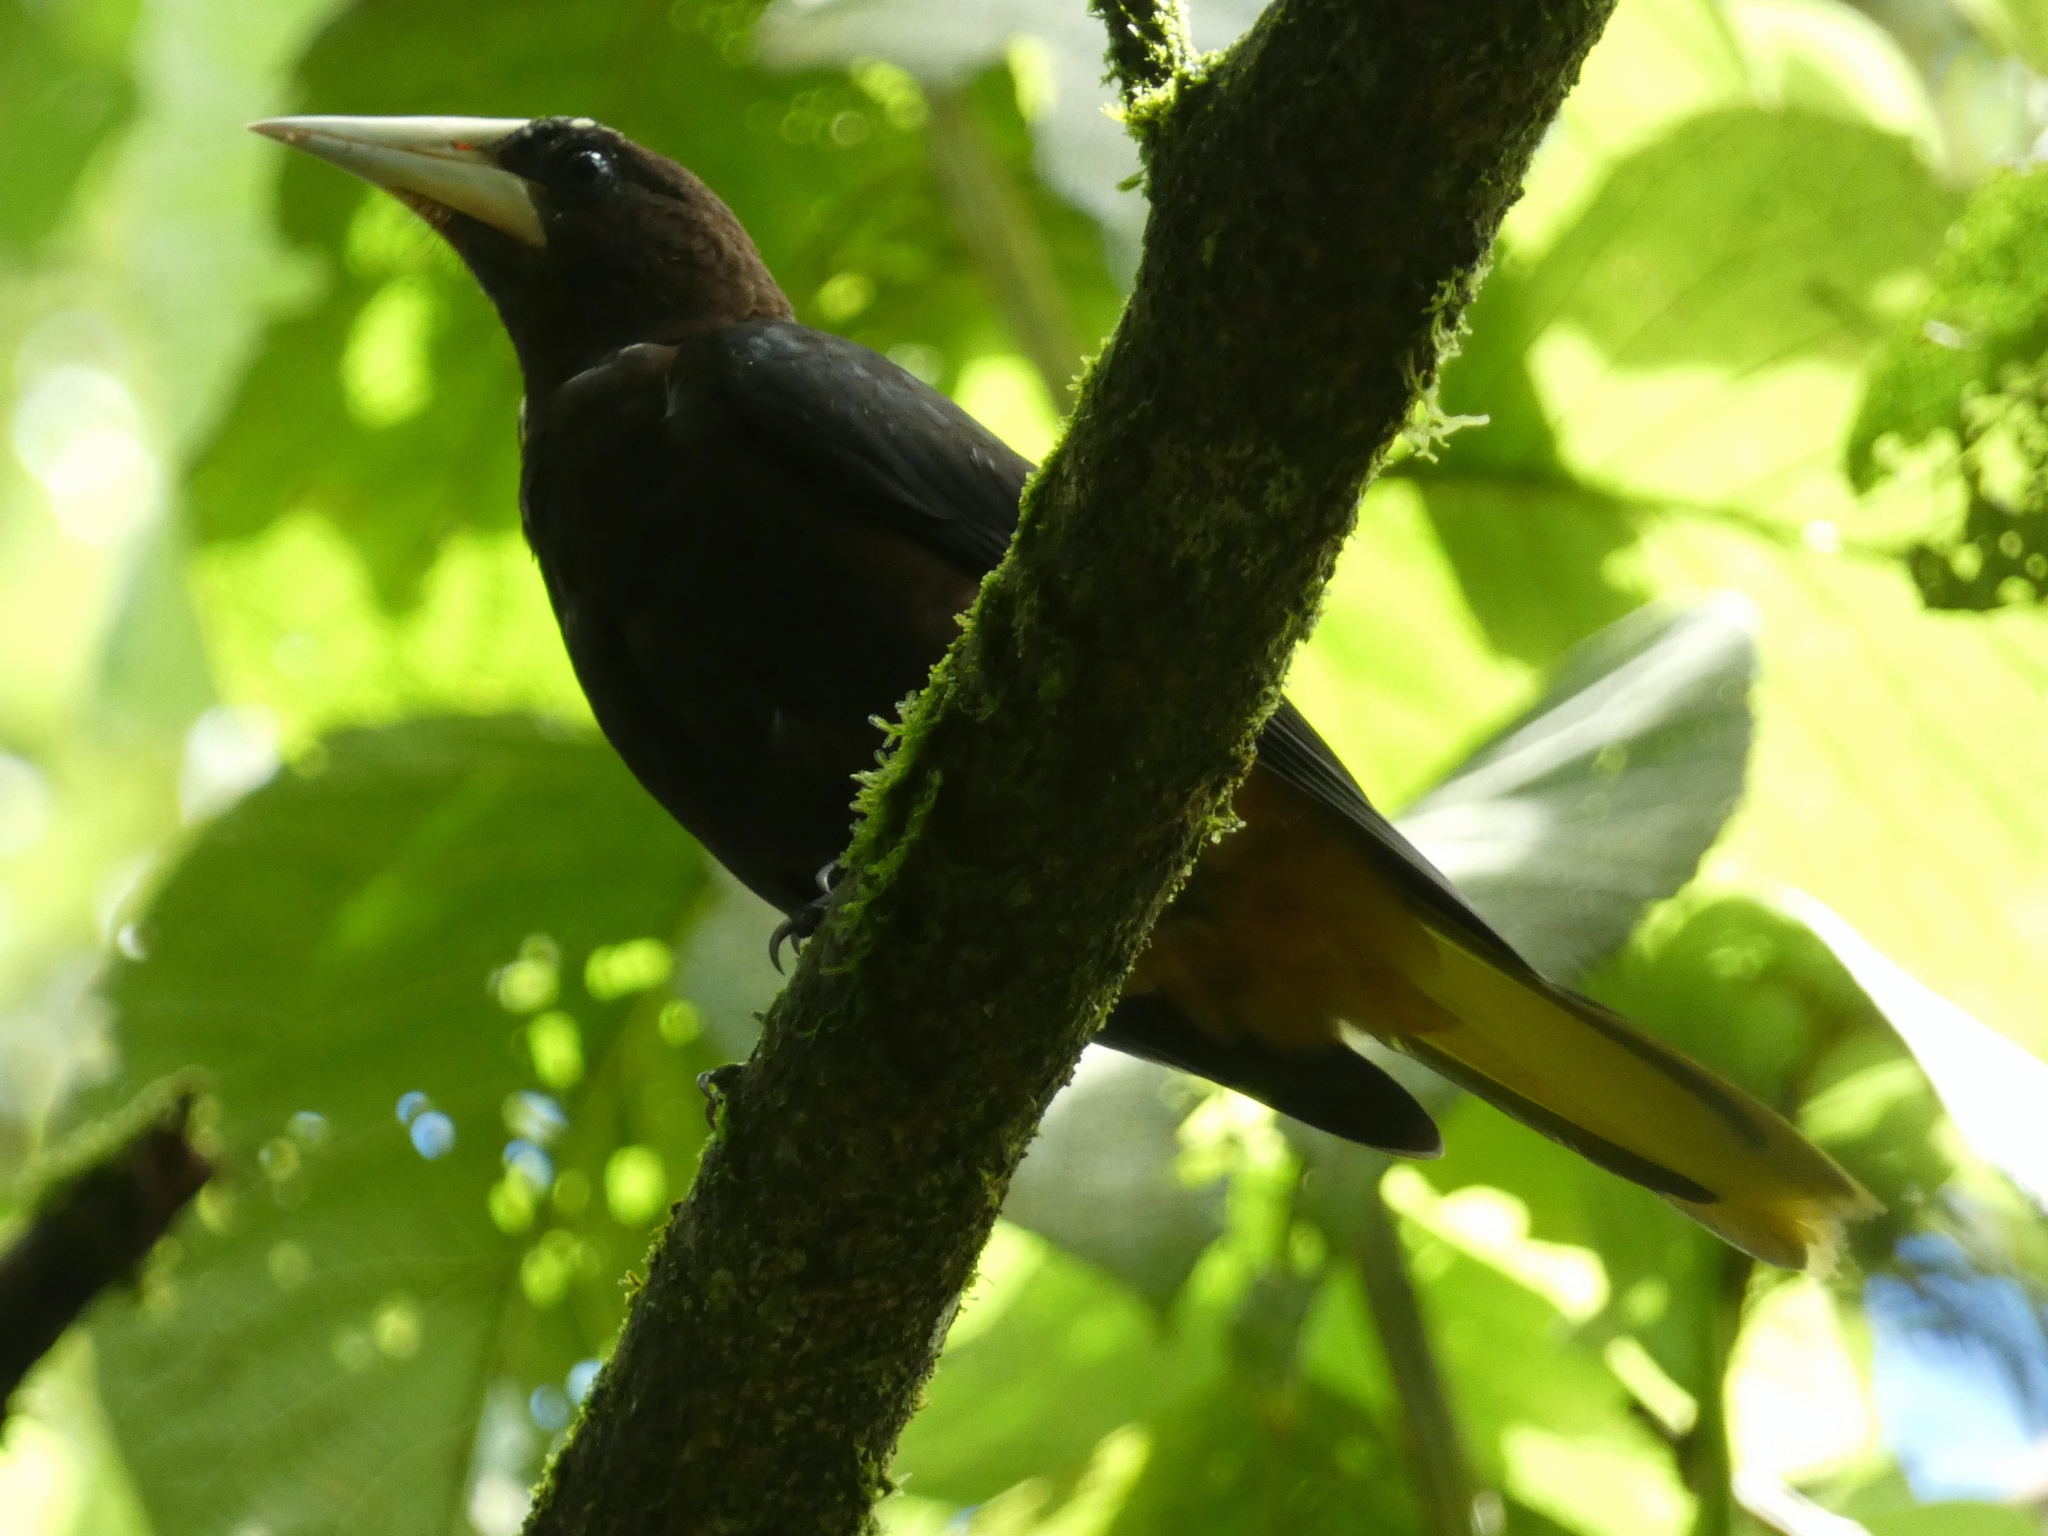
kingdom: Animalia
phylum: Chordata
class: Aves
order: Passeriformes
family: Icteridae
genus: Psarocolius
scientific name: Psarocolius wagleri
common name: Chestnut-headed oropendola
